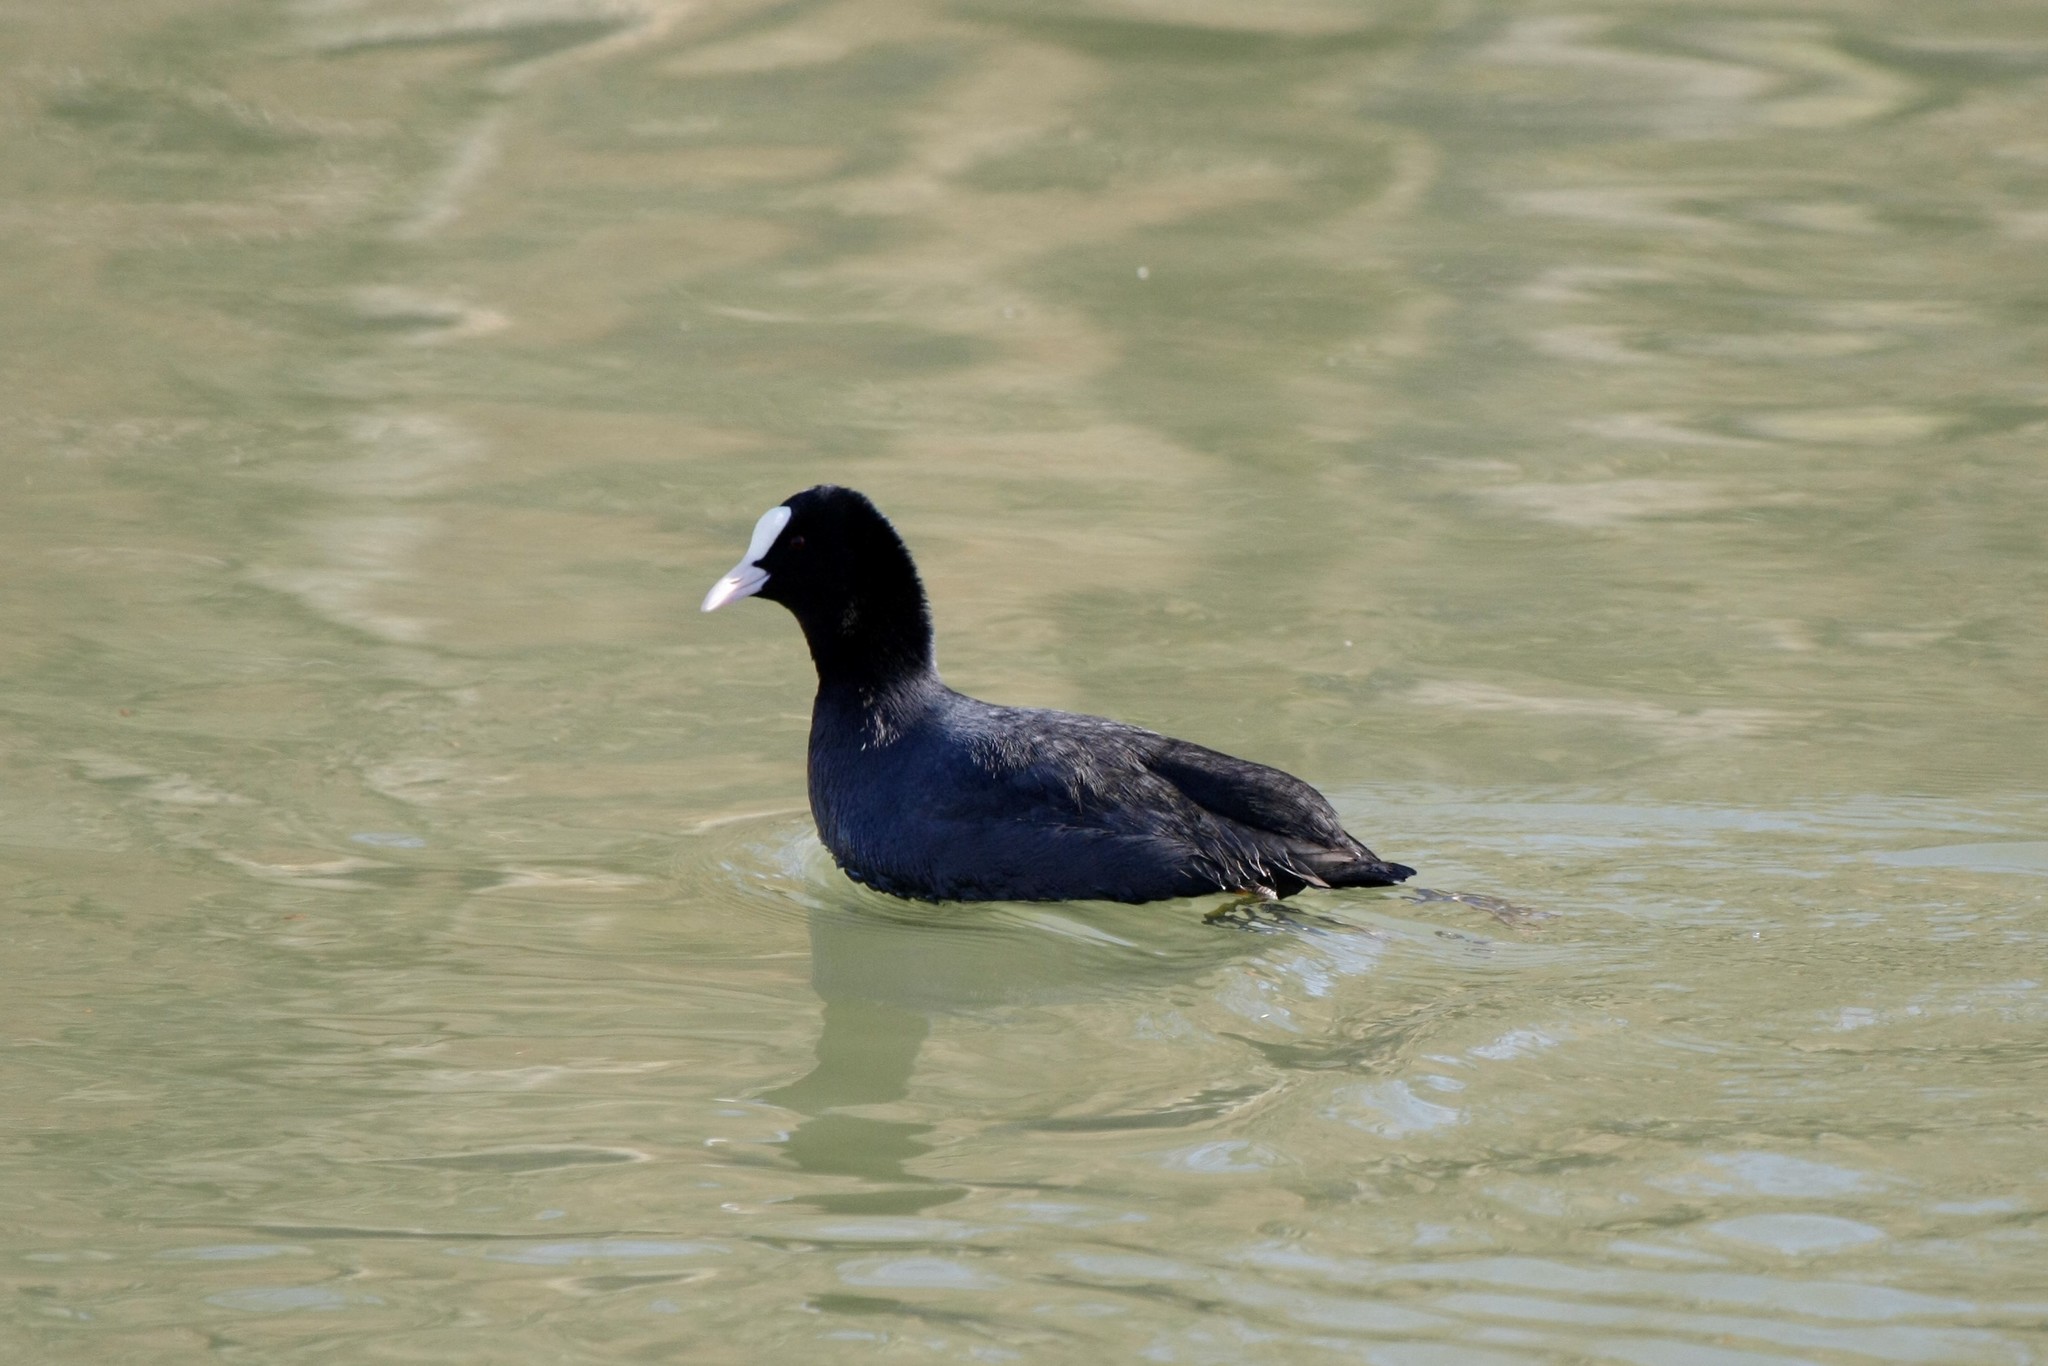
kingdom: Animalia
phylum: Chordata
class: Aves
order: Gruiformes
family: Rallidae
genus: Fulica
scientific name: Fulica atra
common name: Eurasian coot
